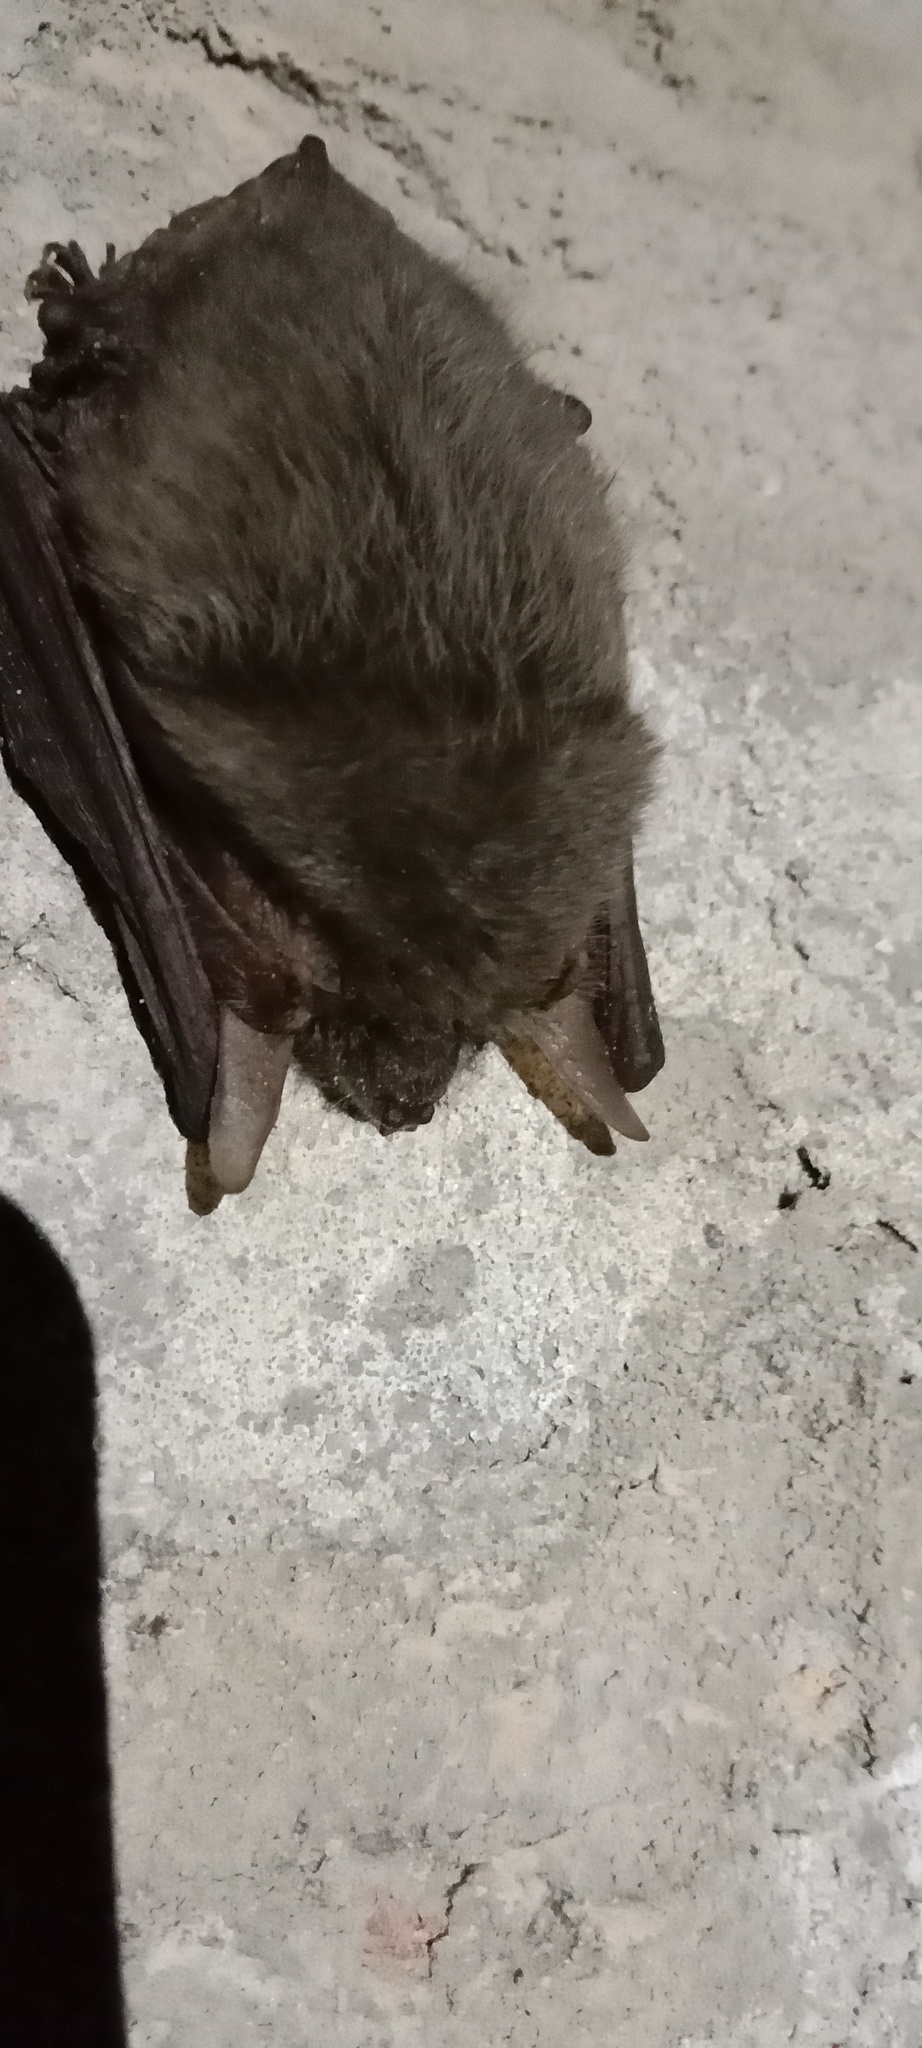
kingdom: Animalia
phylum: Chordata
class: Mammalia
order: Chiroptera
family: Vespertilionidae
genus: Plecotus
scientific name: Plecotus austriacus
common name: Grey long-eared bat
